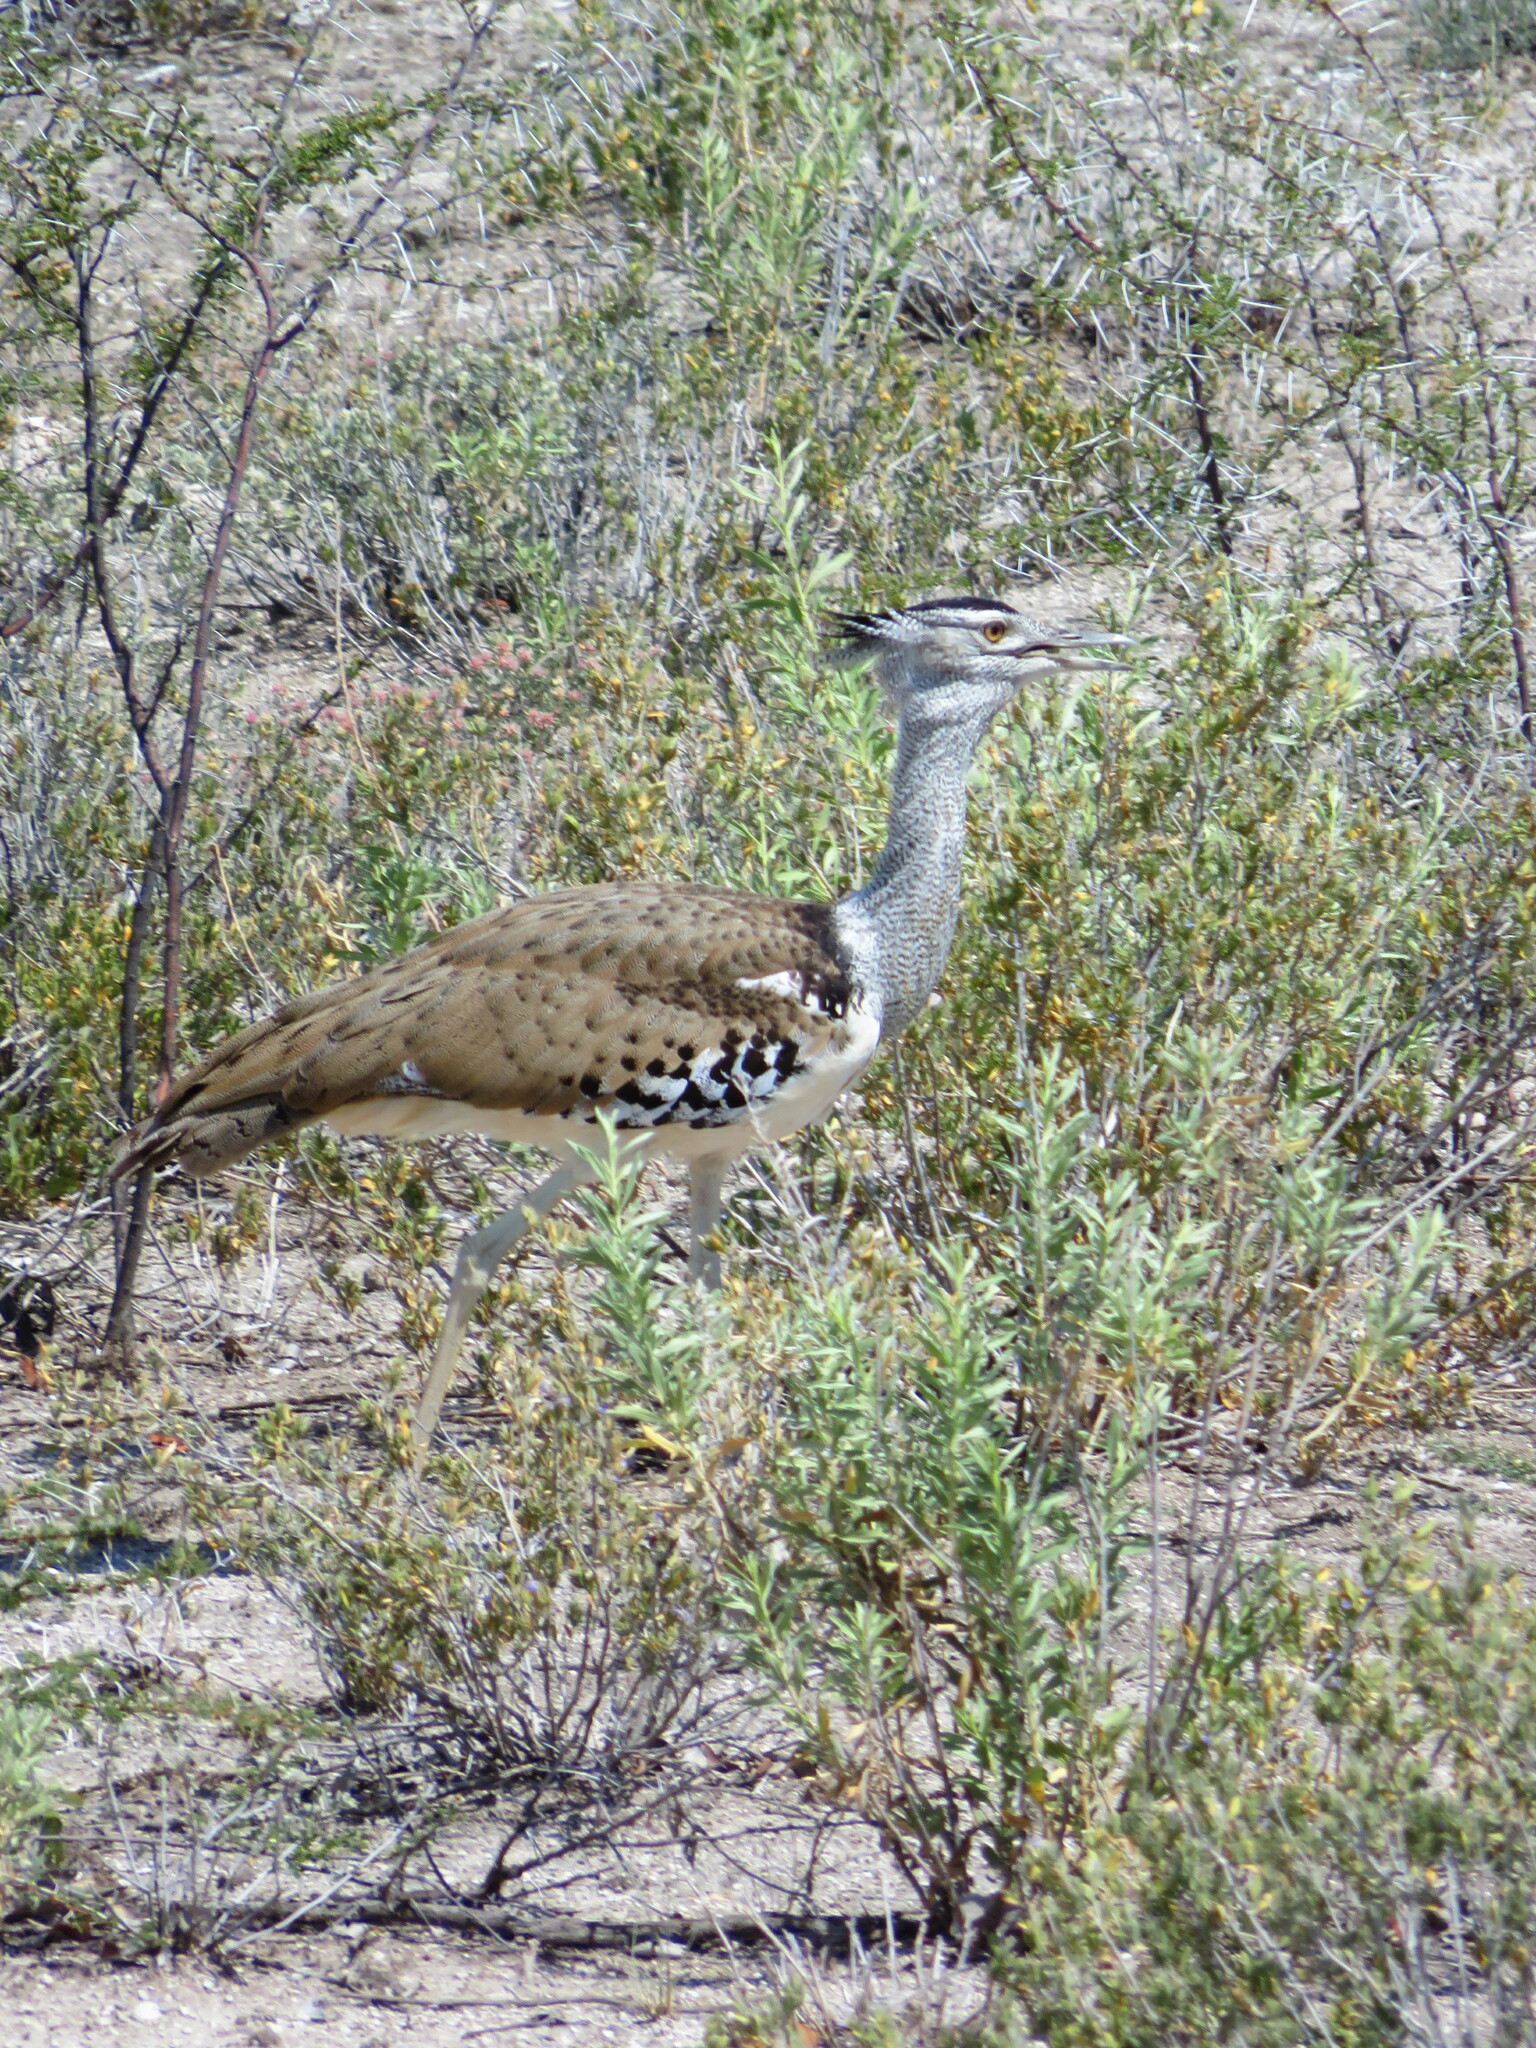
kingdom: Animalia
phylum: Chordata
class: Aves
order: Otidiformes
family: Otididae
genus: Ardeotis
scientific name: Ardeotis kori
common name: Kori bustard
